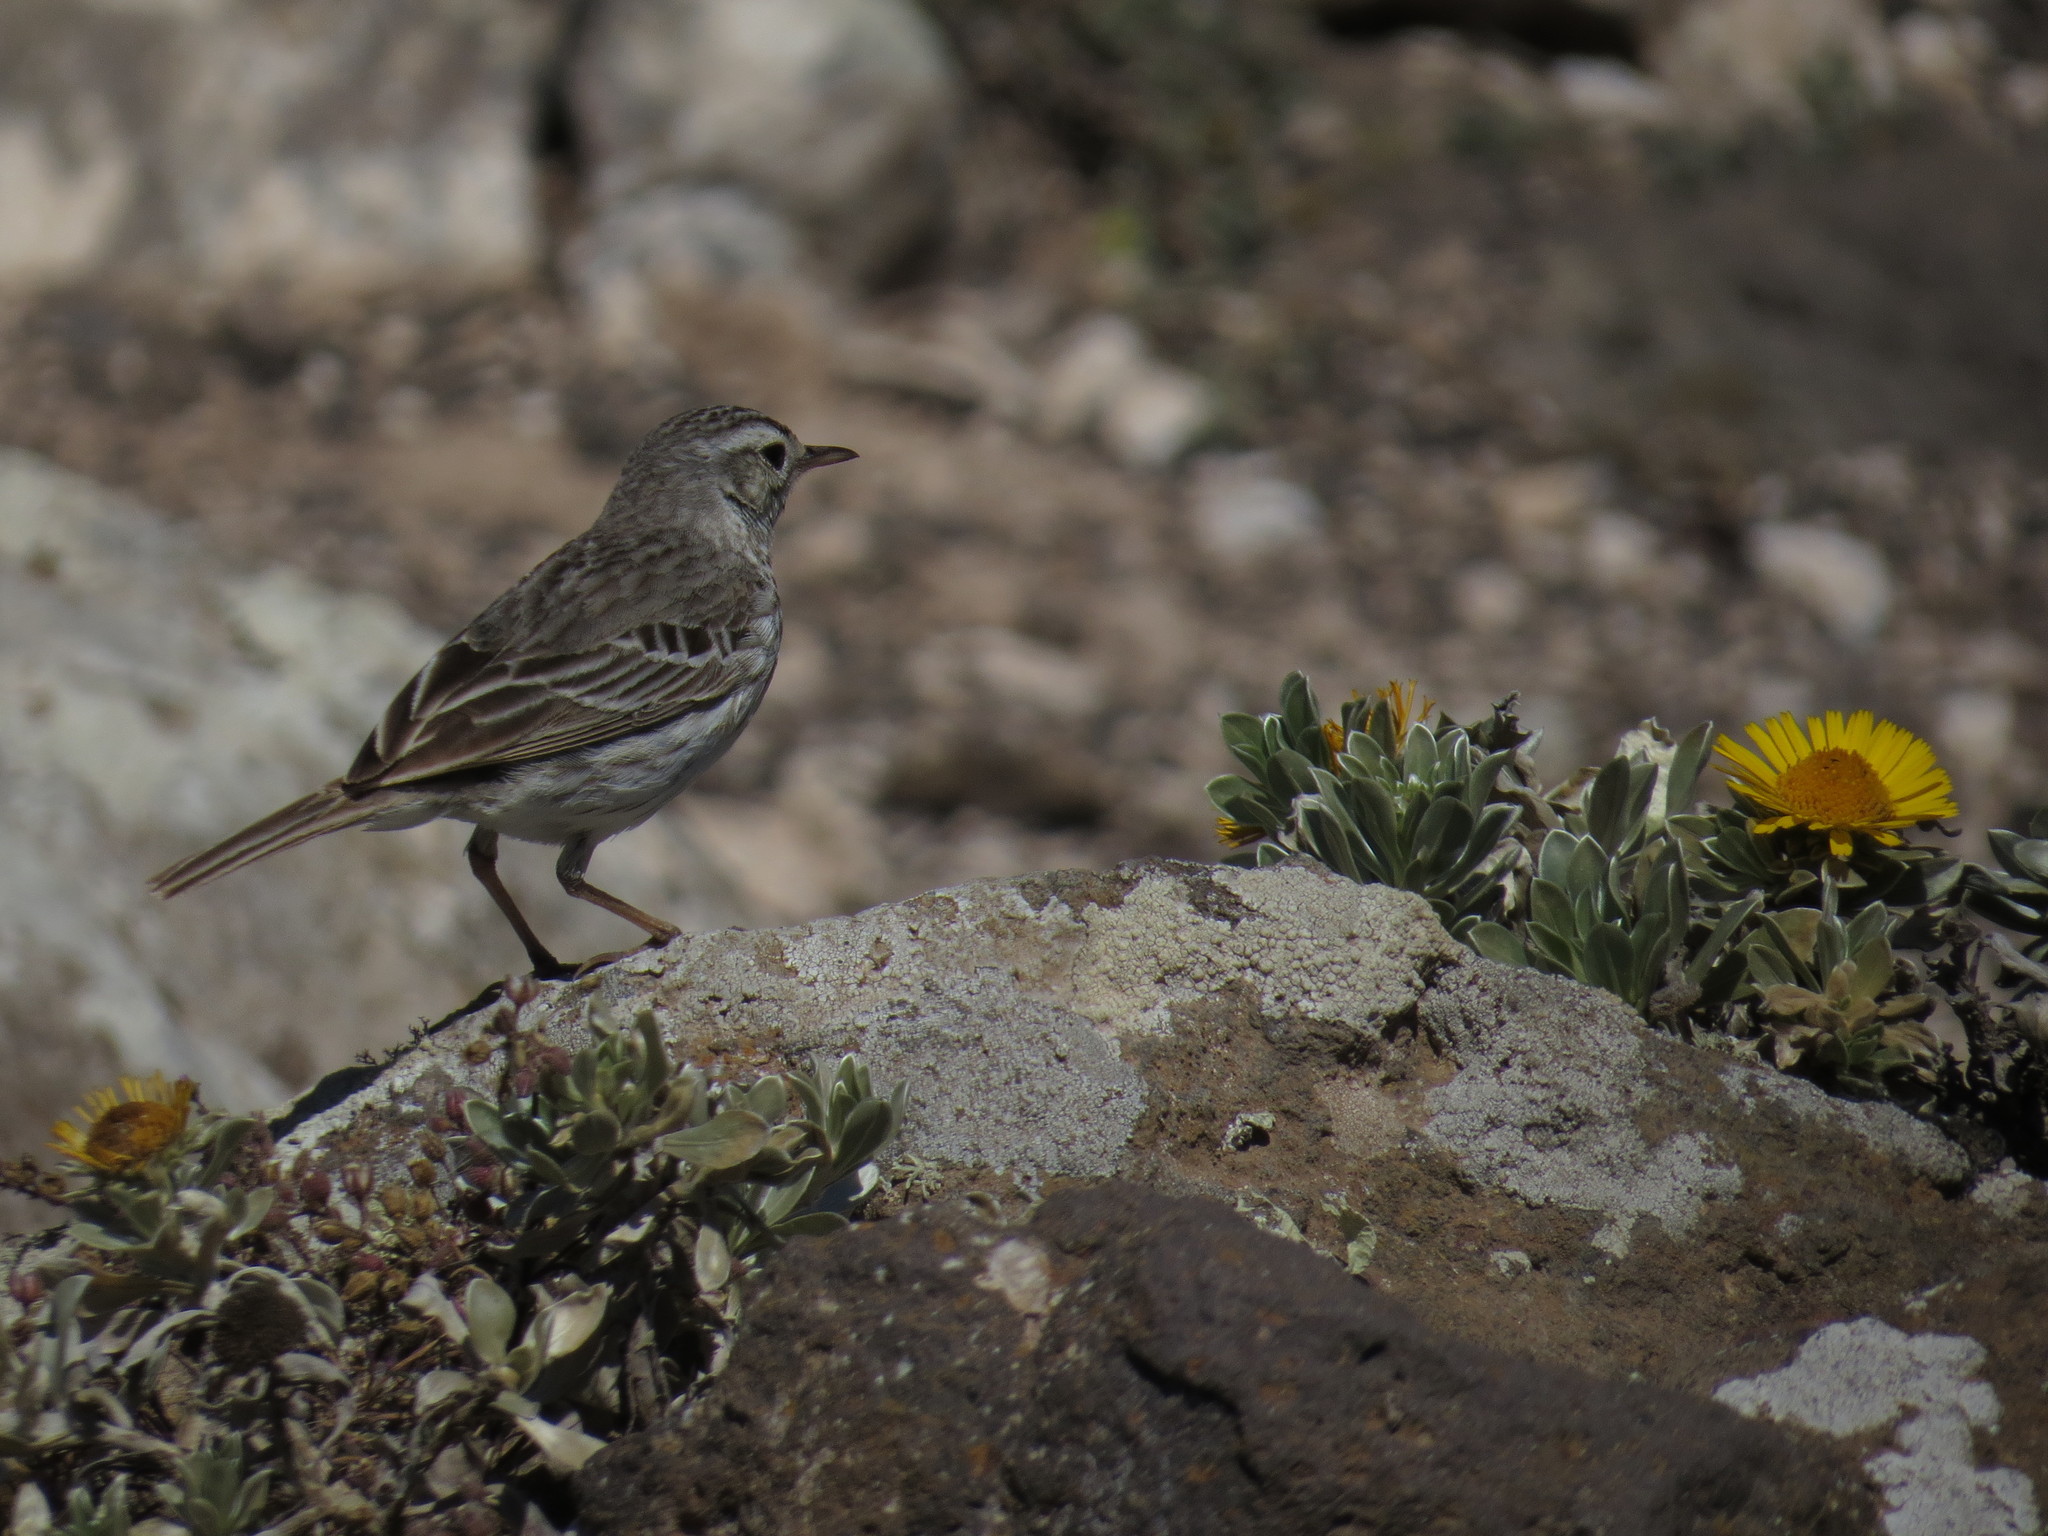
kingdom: Animalia
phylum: Chordata
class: Aves
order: Passeriformes
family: Motacillidae
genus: Anthus
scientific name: Anthus berthelotii
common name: Berthelot's pipit
